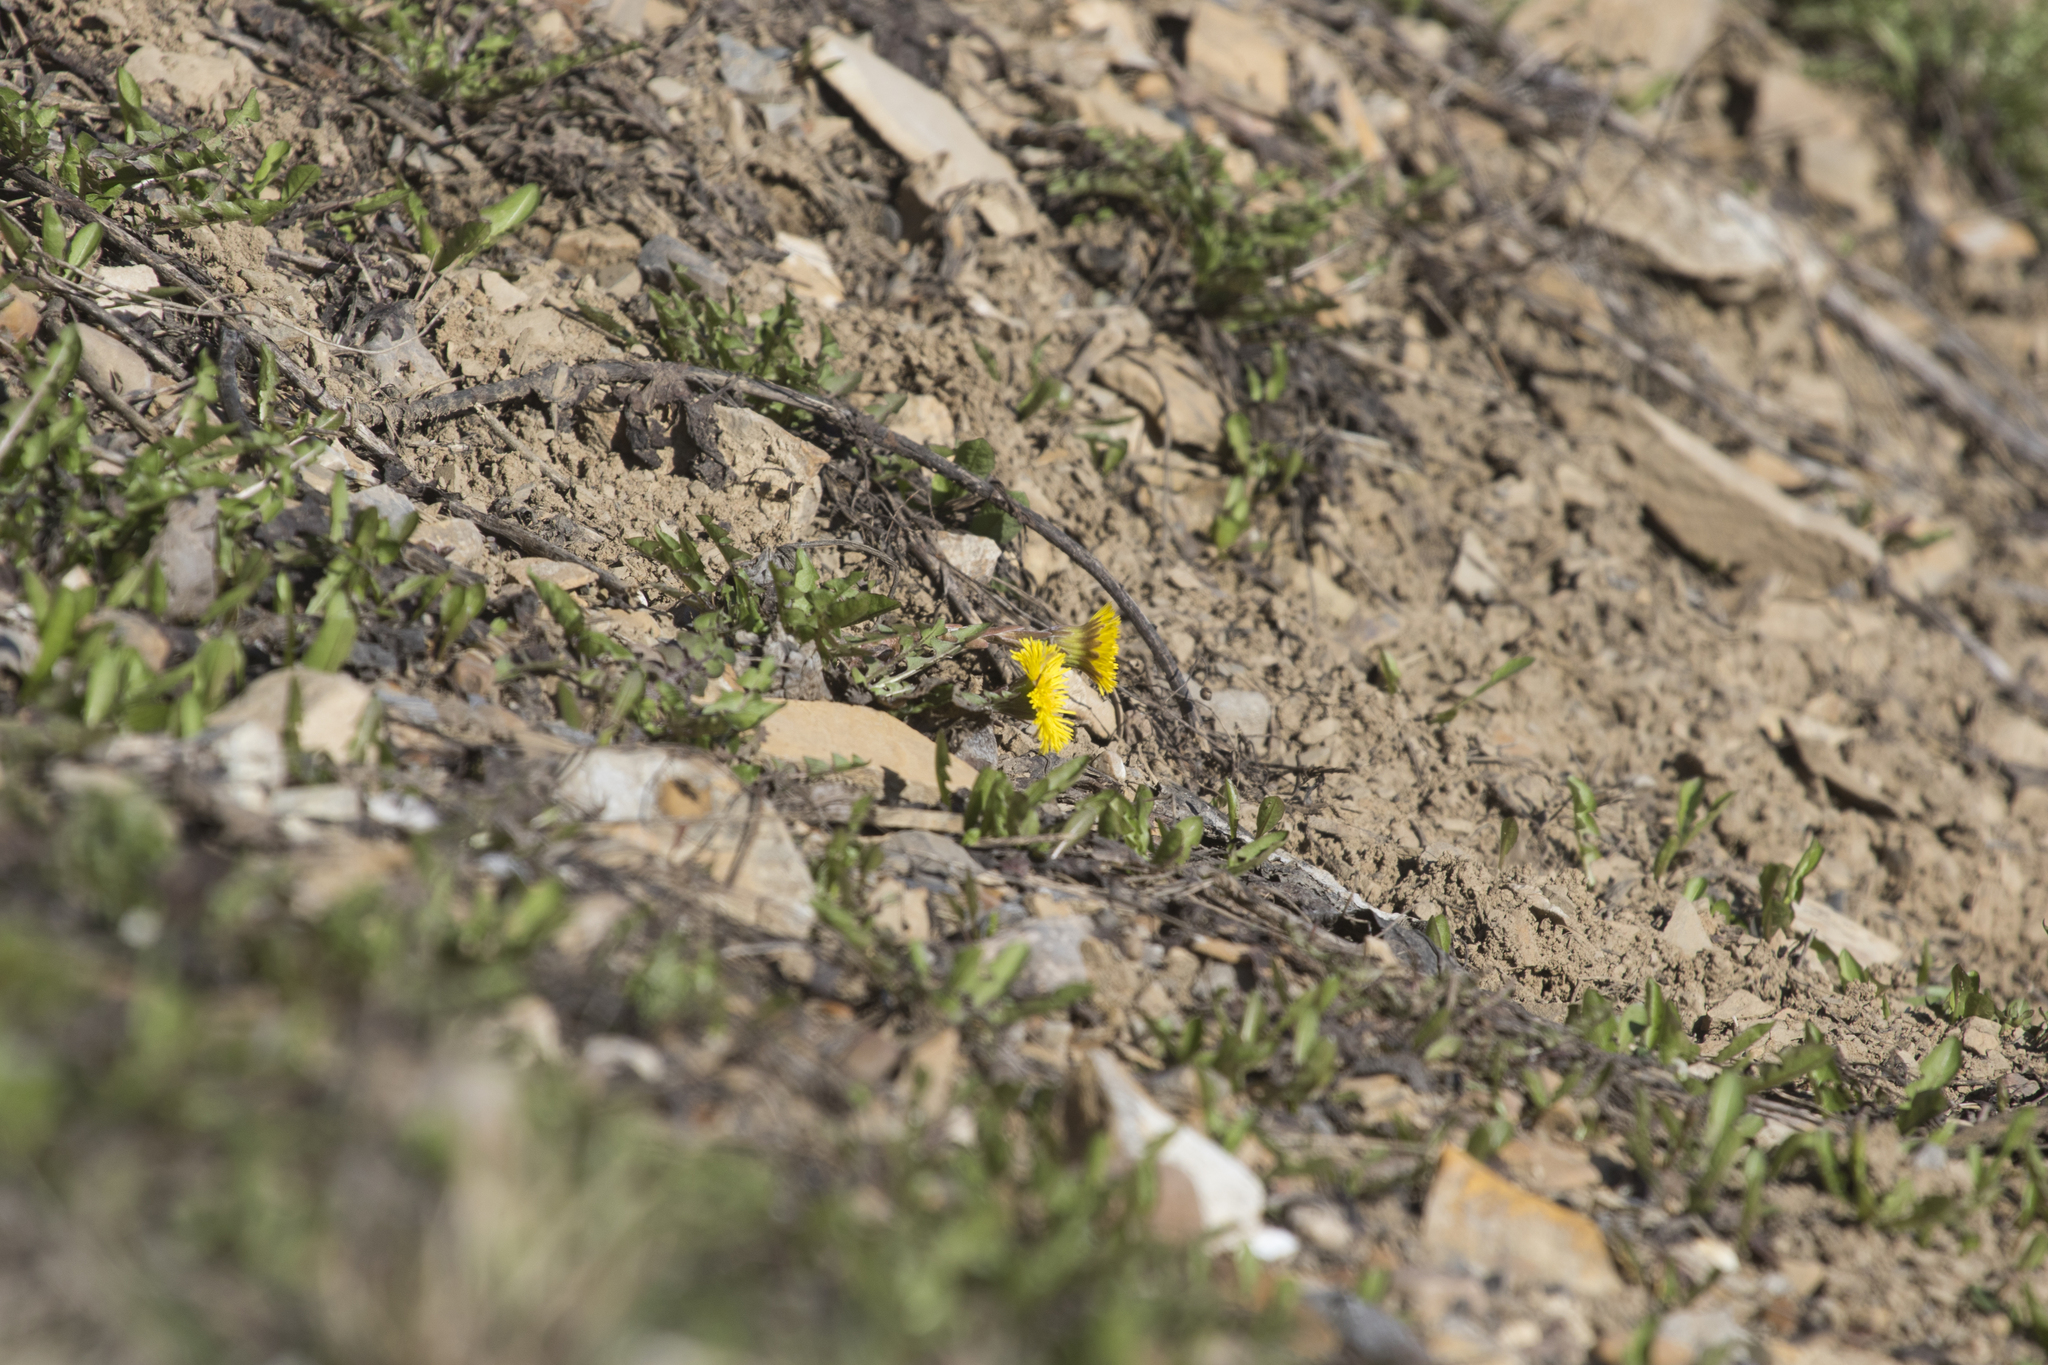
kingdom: Plantae
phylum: Tracheophyta
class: Magnoliopsida
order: Asterales
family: Asteraceae
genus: Tussilago
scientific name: Tussilago farfara
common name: Coltsfoot
